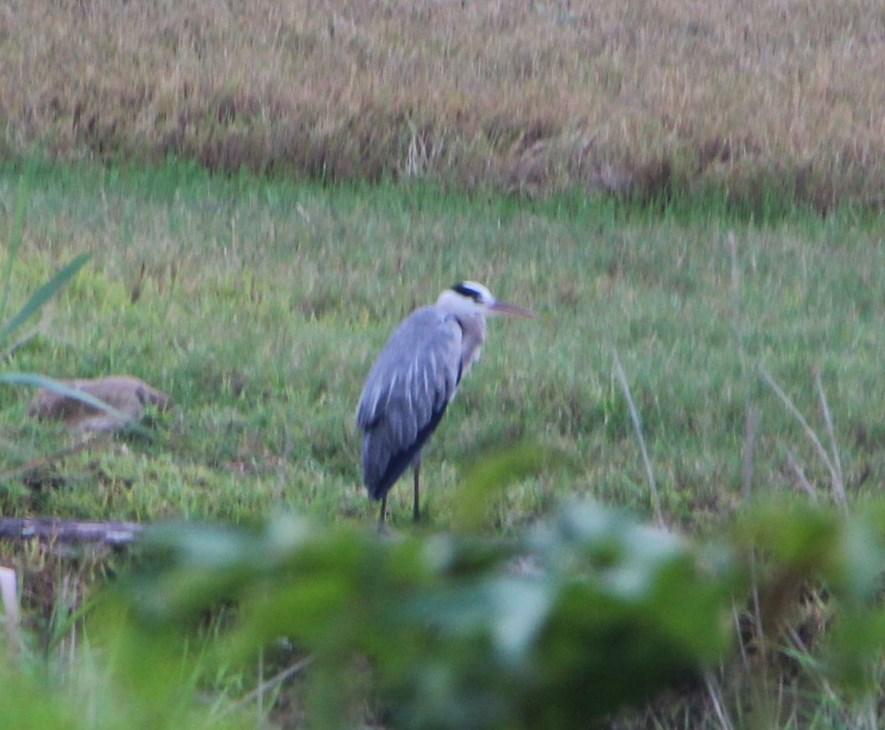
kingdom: Animalia
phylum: Chordata
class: Aves
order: Pelecaniformes
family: Ardeidae
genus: Ardea
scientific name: Ardea cinerea
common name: Grey heron
